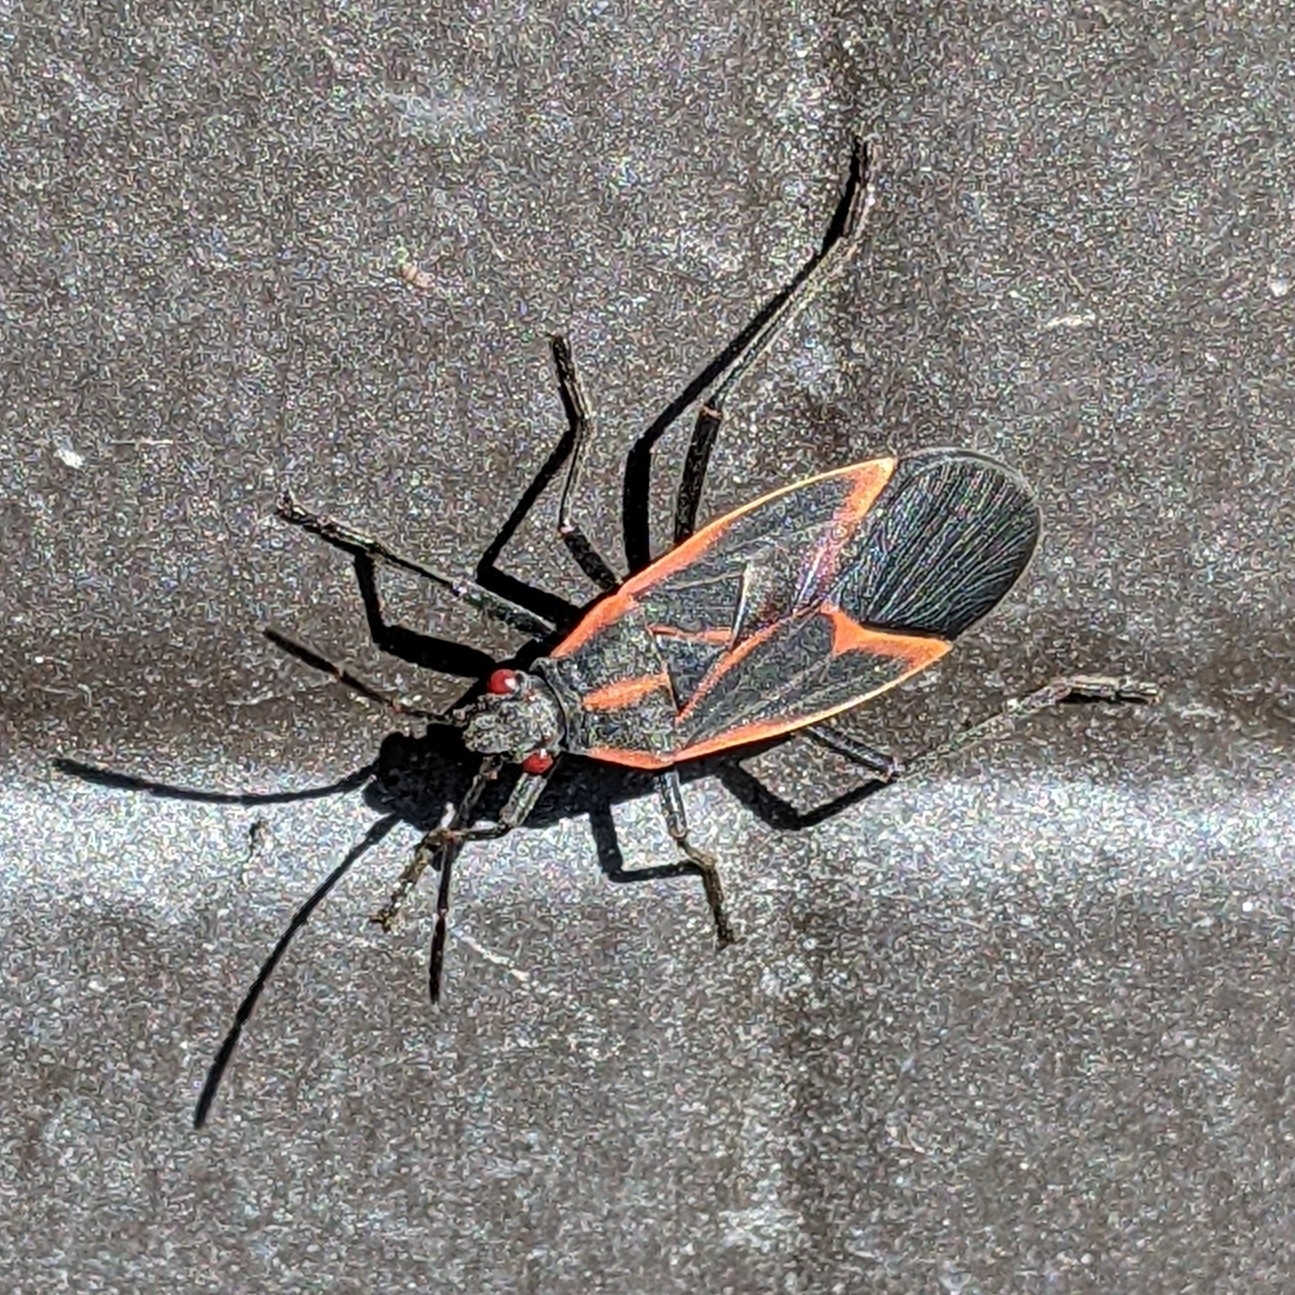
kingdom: Animalia
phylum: Arthropoda
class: Insecta
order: Hemiptera
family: Rhopalidae
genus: Boisea
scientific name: Boisea trivittata
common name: Boxelder bug
